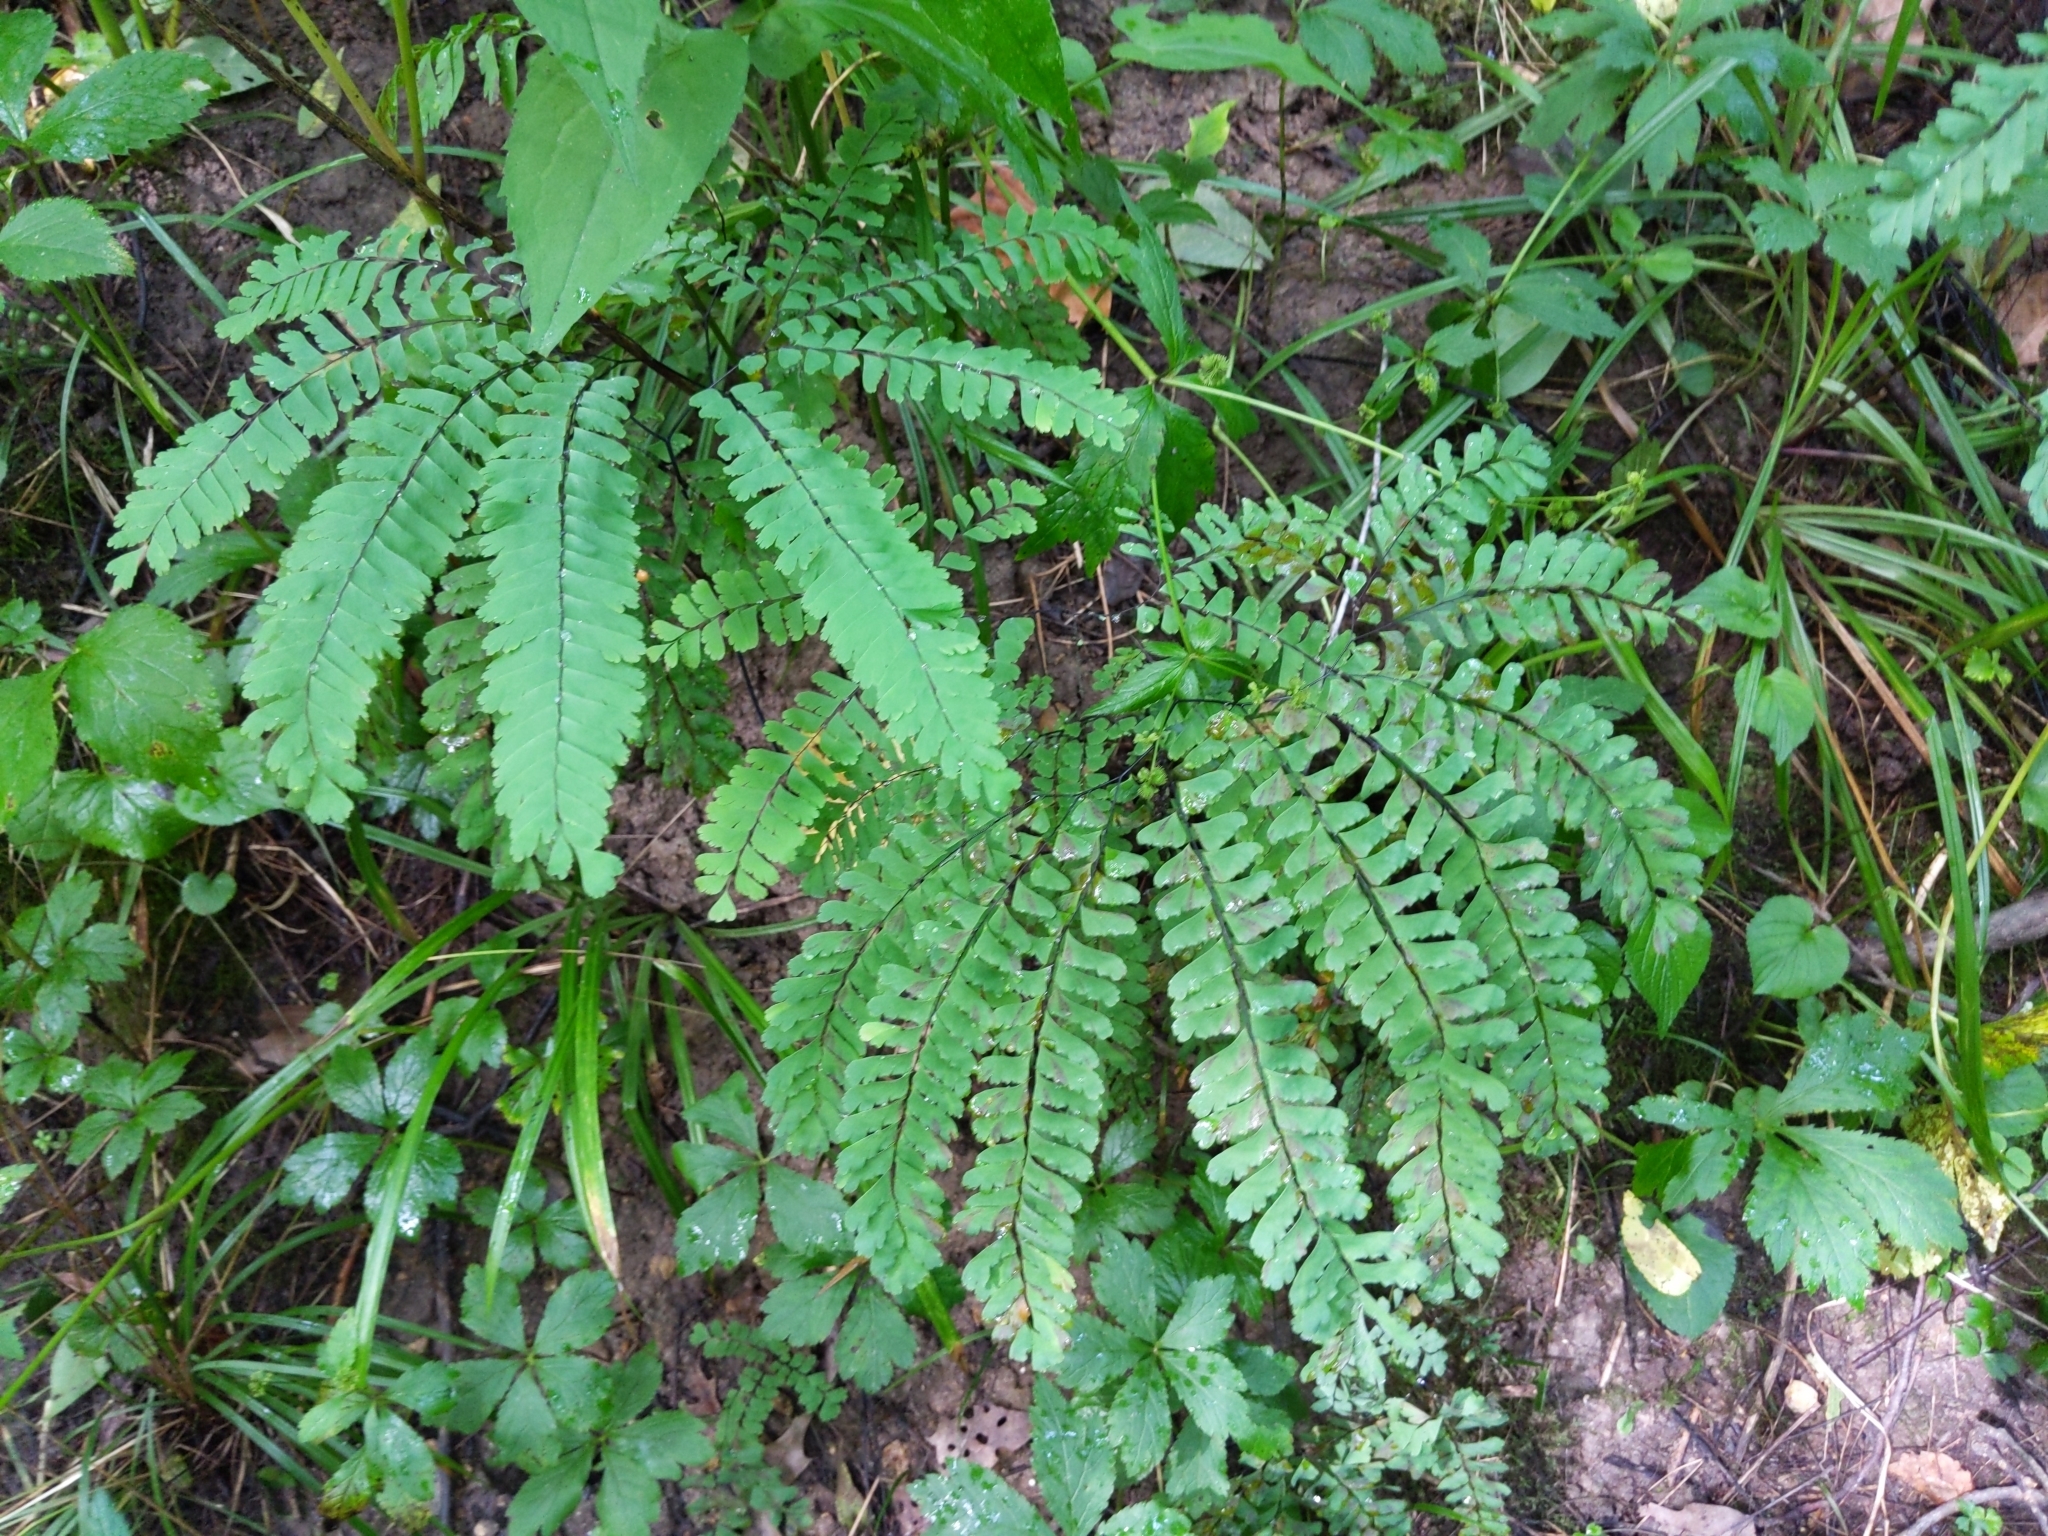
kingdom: Plantae
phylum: Tracheophyta
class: Polypodiopsida
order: Polypodiales
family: Pteridaceae
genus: Adiantum
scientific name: Adiantum pedatum
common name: Five-finger fern
